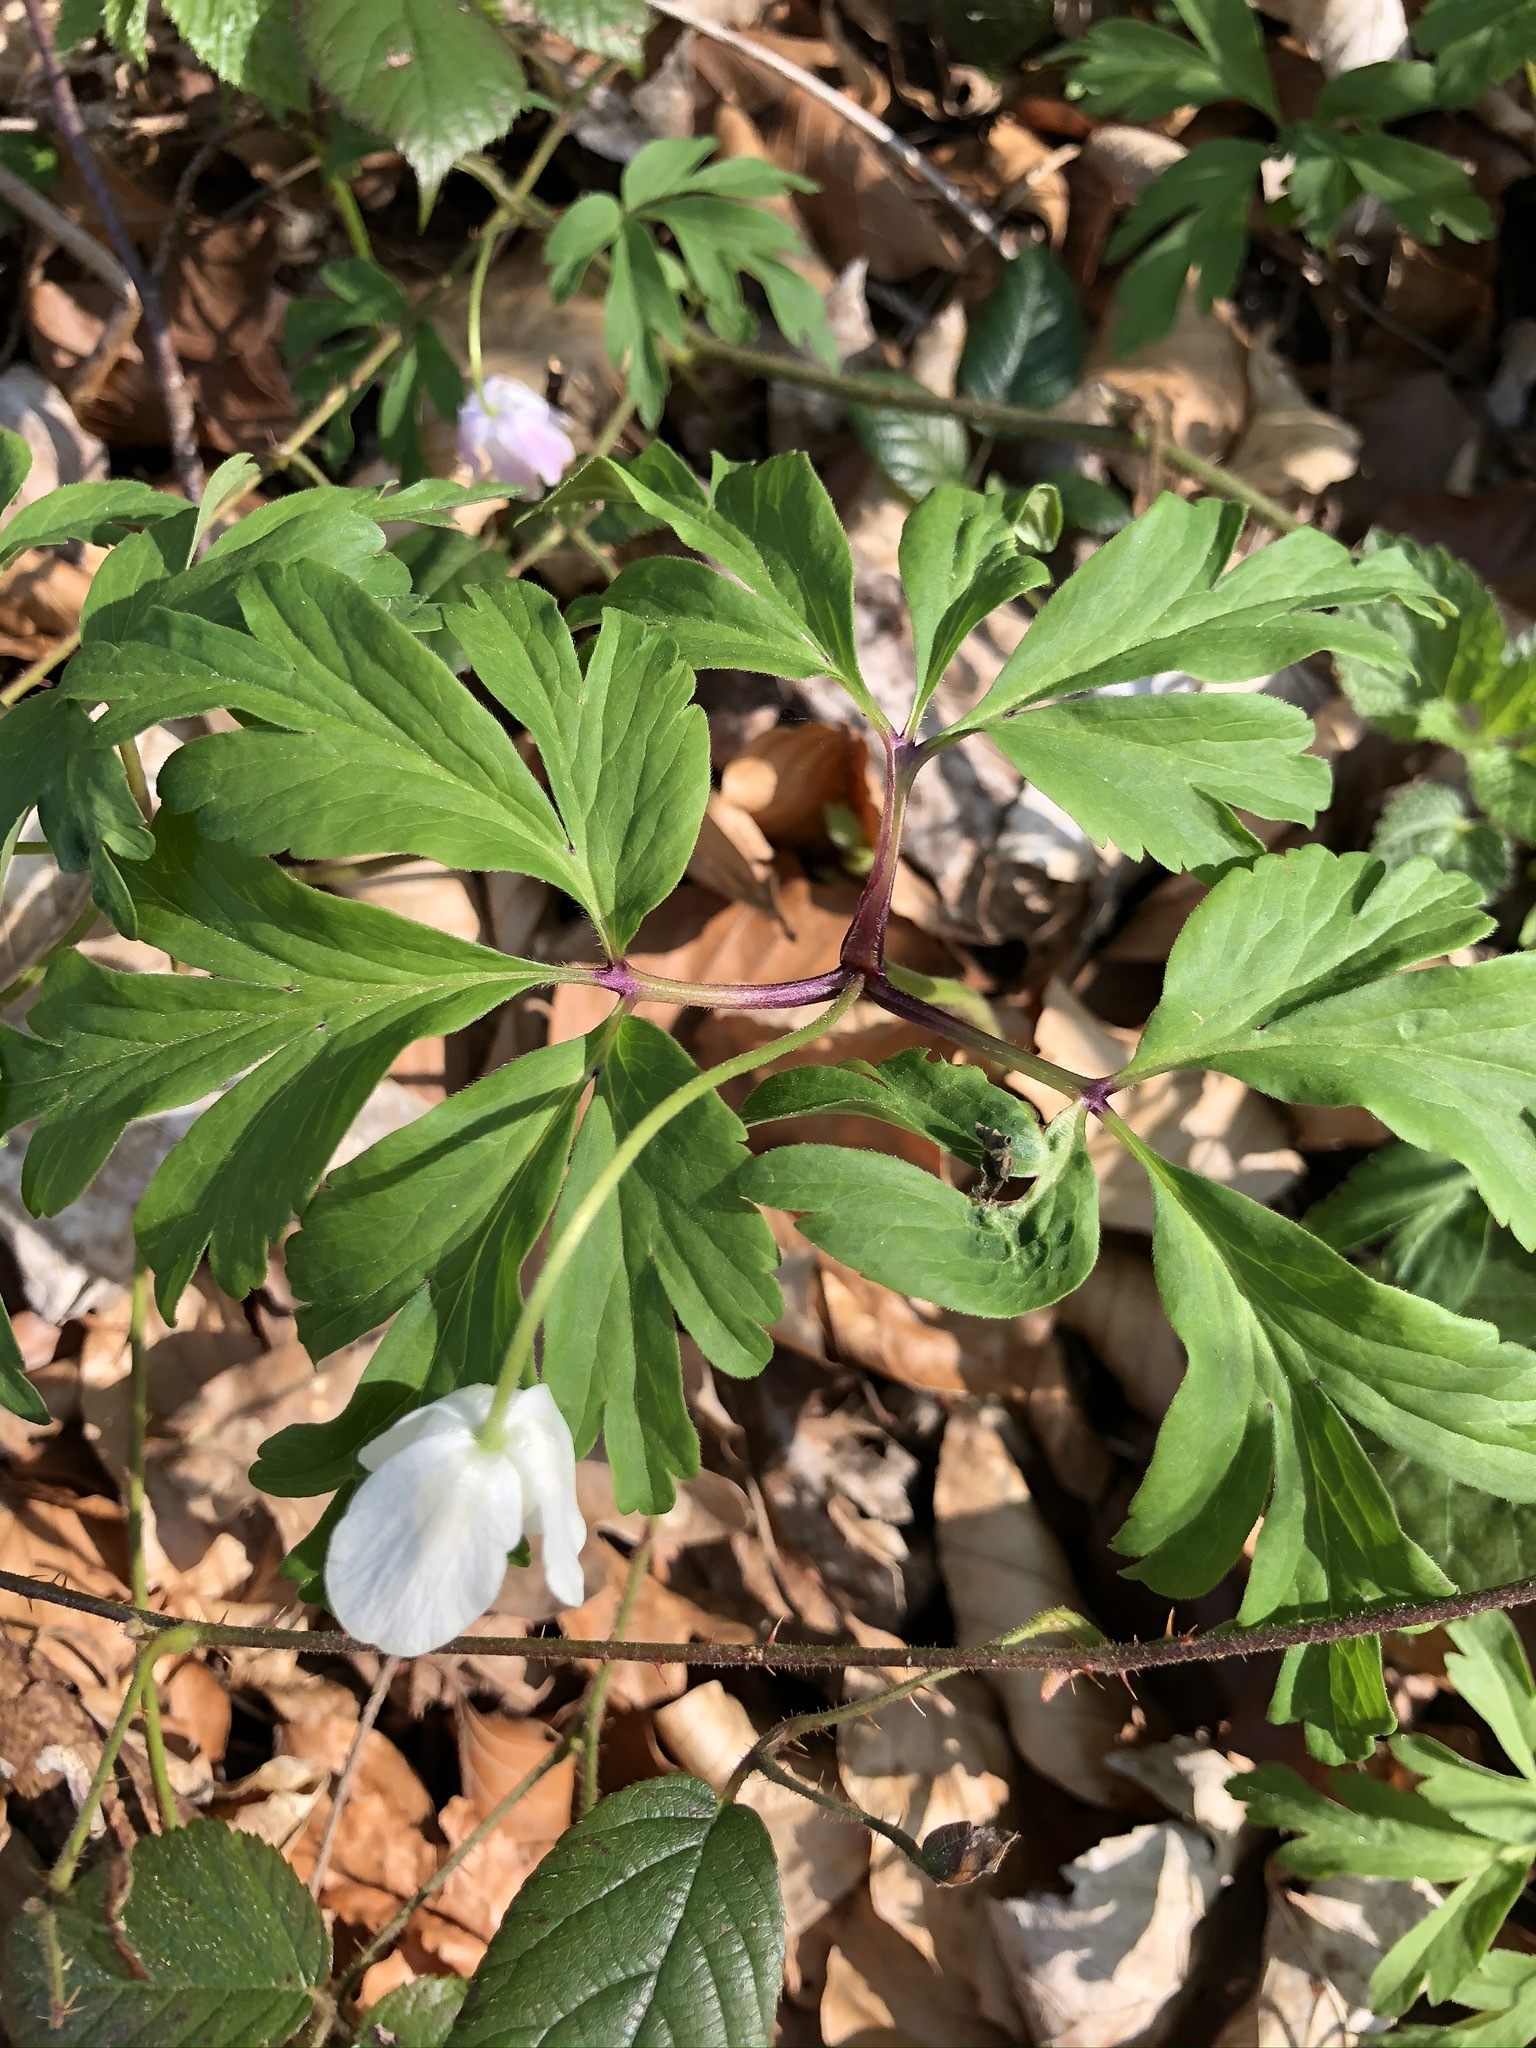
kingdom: Plantae
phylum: Tracheophyta
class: Magnoliopsida
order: Ranunculales
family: Ranunculaceae
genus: Anemone
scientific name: Anemone nemorosa
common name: Wood anemone
